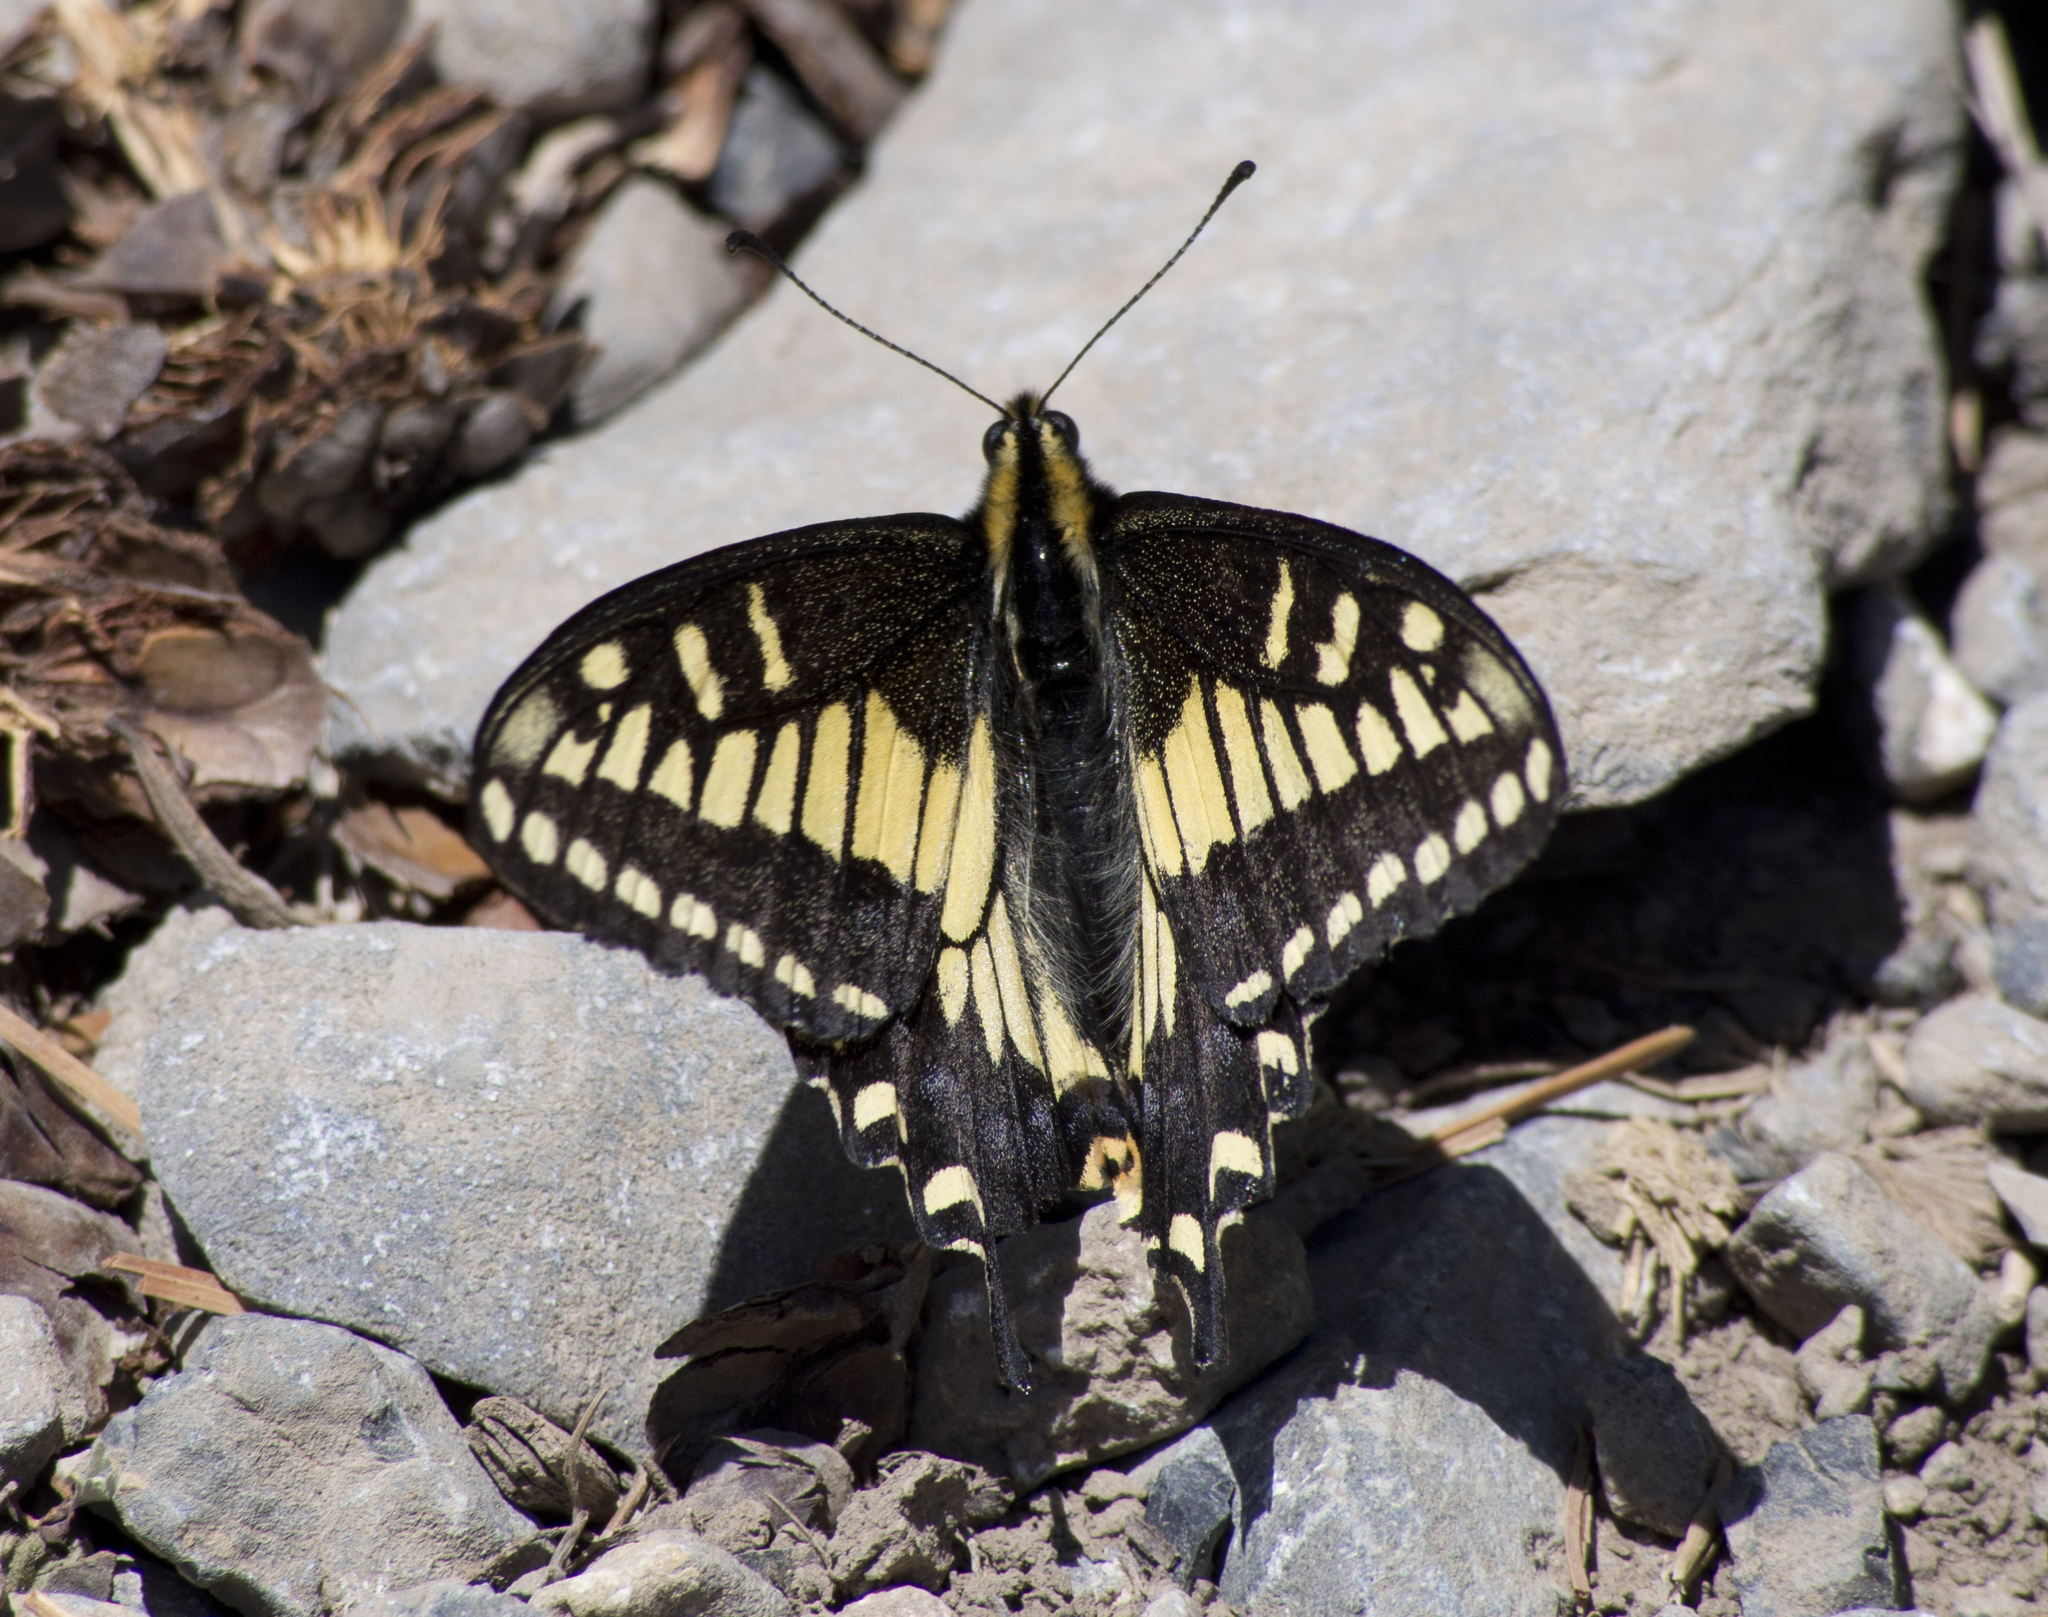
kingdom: Animalia
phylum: Arthropoda
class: Insecta
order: Lepidoptera
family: Papilionidae
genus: Papilio
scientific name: Papilio zelicaon
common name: Anise swallowtail
